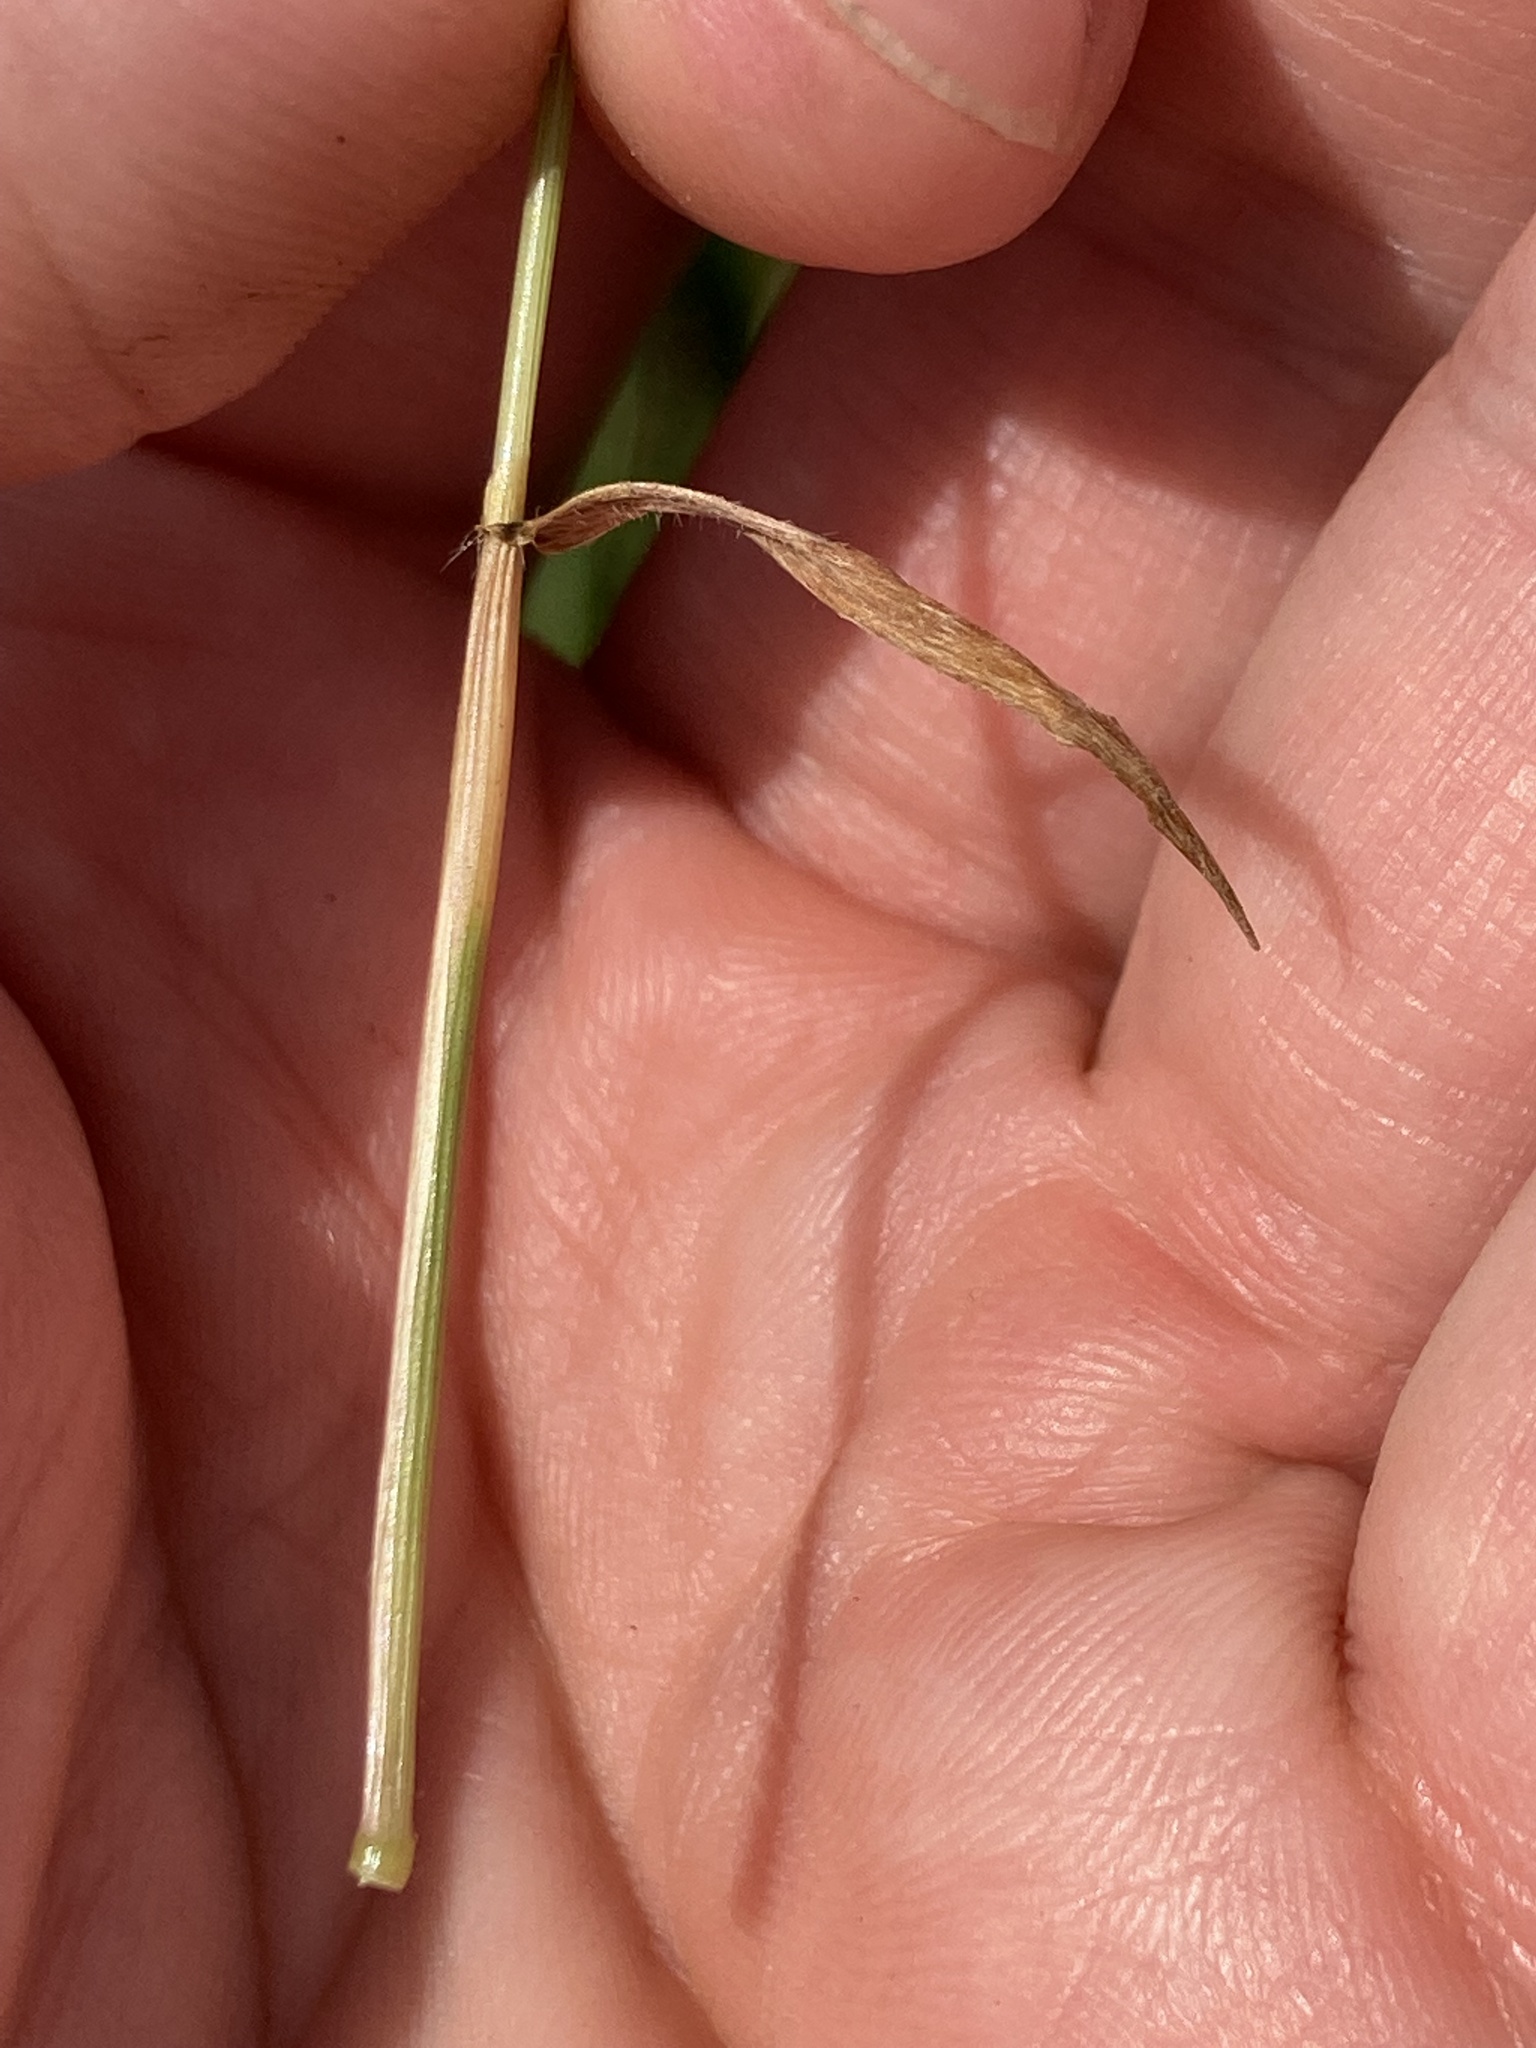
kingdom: Plantae
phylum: Tracheophyta
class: Liliopsida
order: Poales
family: Poaceae
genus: Anthoxanthum
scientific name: Anthoxanthum odoratum
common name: Sweet vernalgrass
